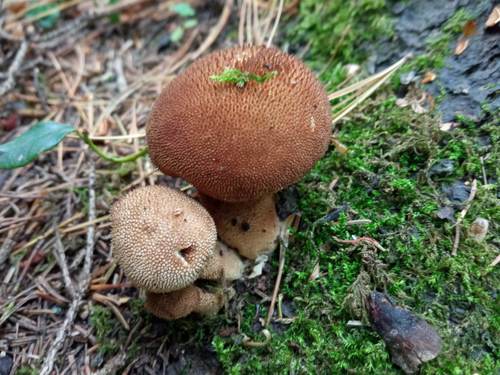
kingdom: Fungi
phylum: Basidiomycota
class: Agaricomycetes
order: Agaricales
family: Lycoperdaceae
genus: Lycoperdon
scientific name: Lycoperdon perlatum
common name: Common puffball
